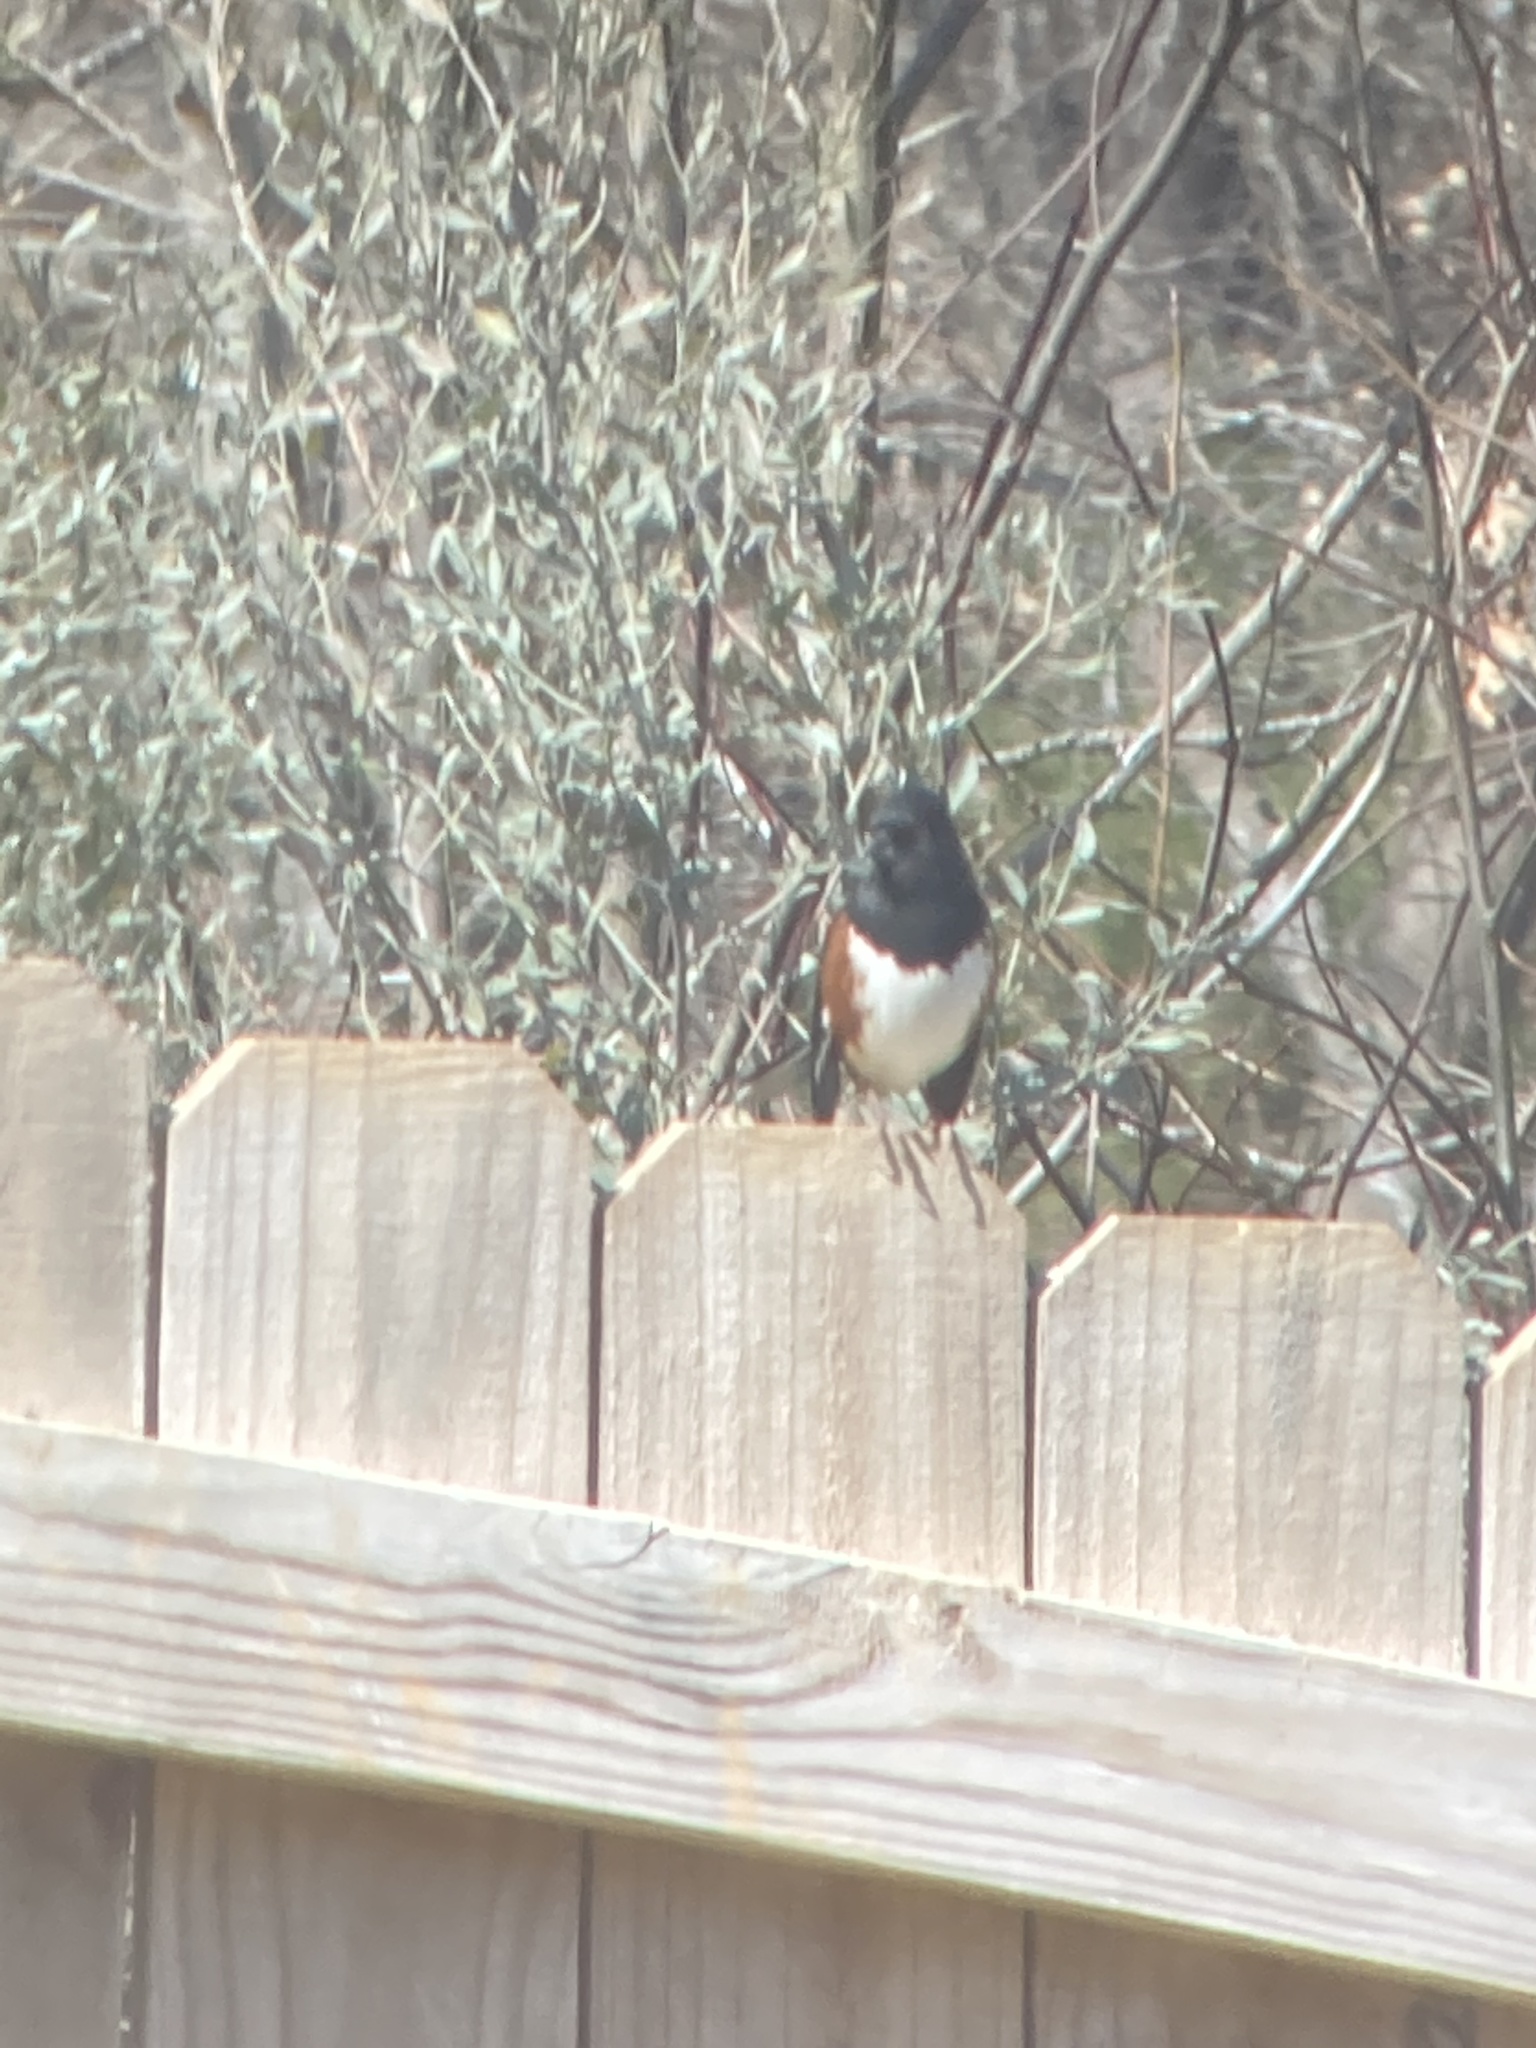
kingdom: Animalia
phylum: Chordata
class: Aves
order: Passeriformes
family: Passerellidae
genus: Pipilo
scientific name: Pipilo erythrophthalmus
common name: Eastern towhee
